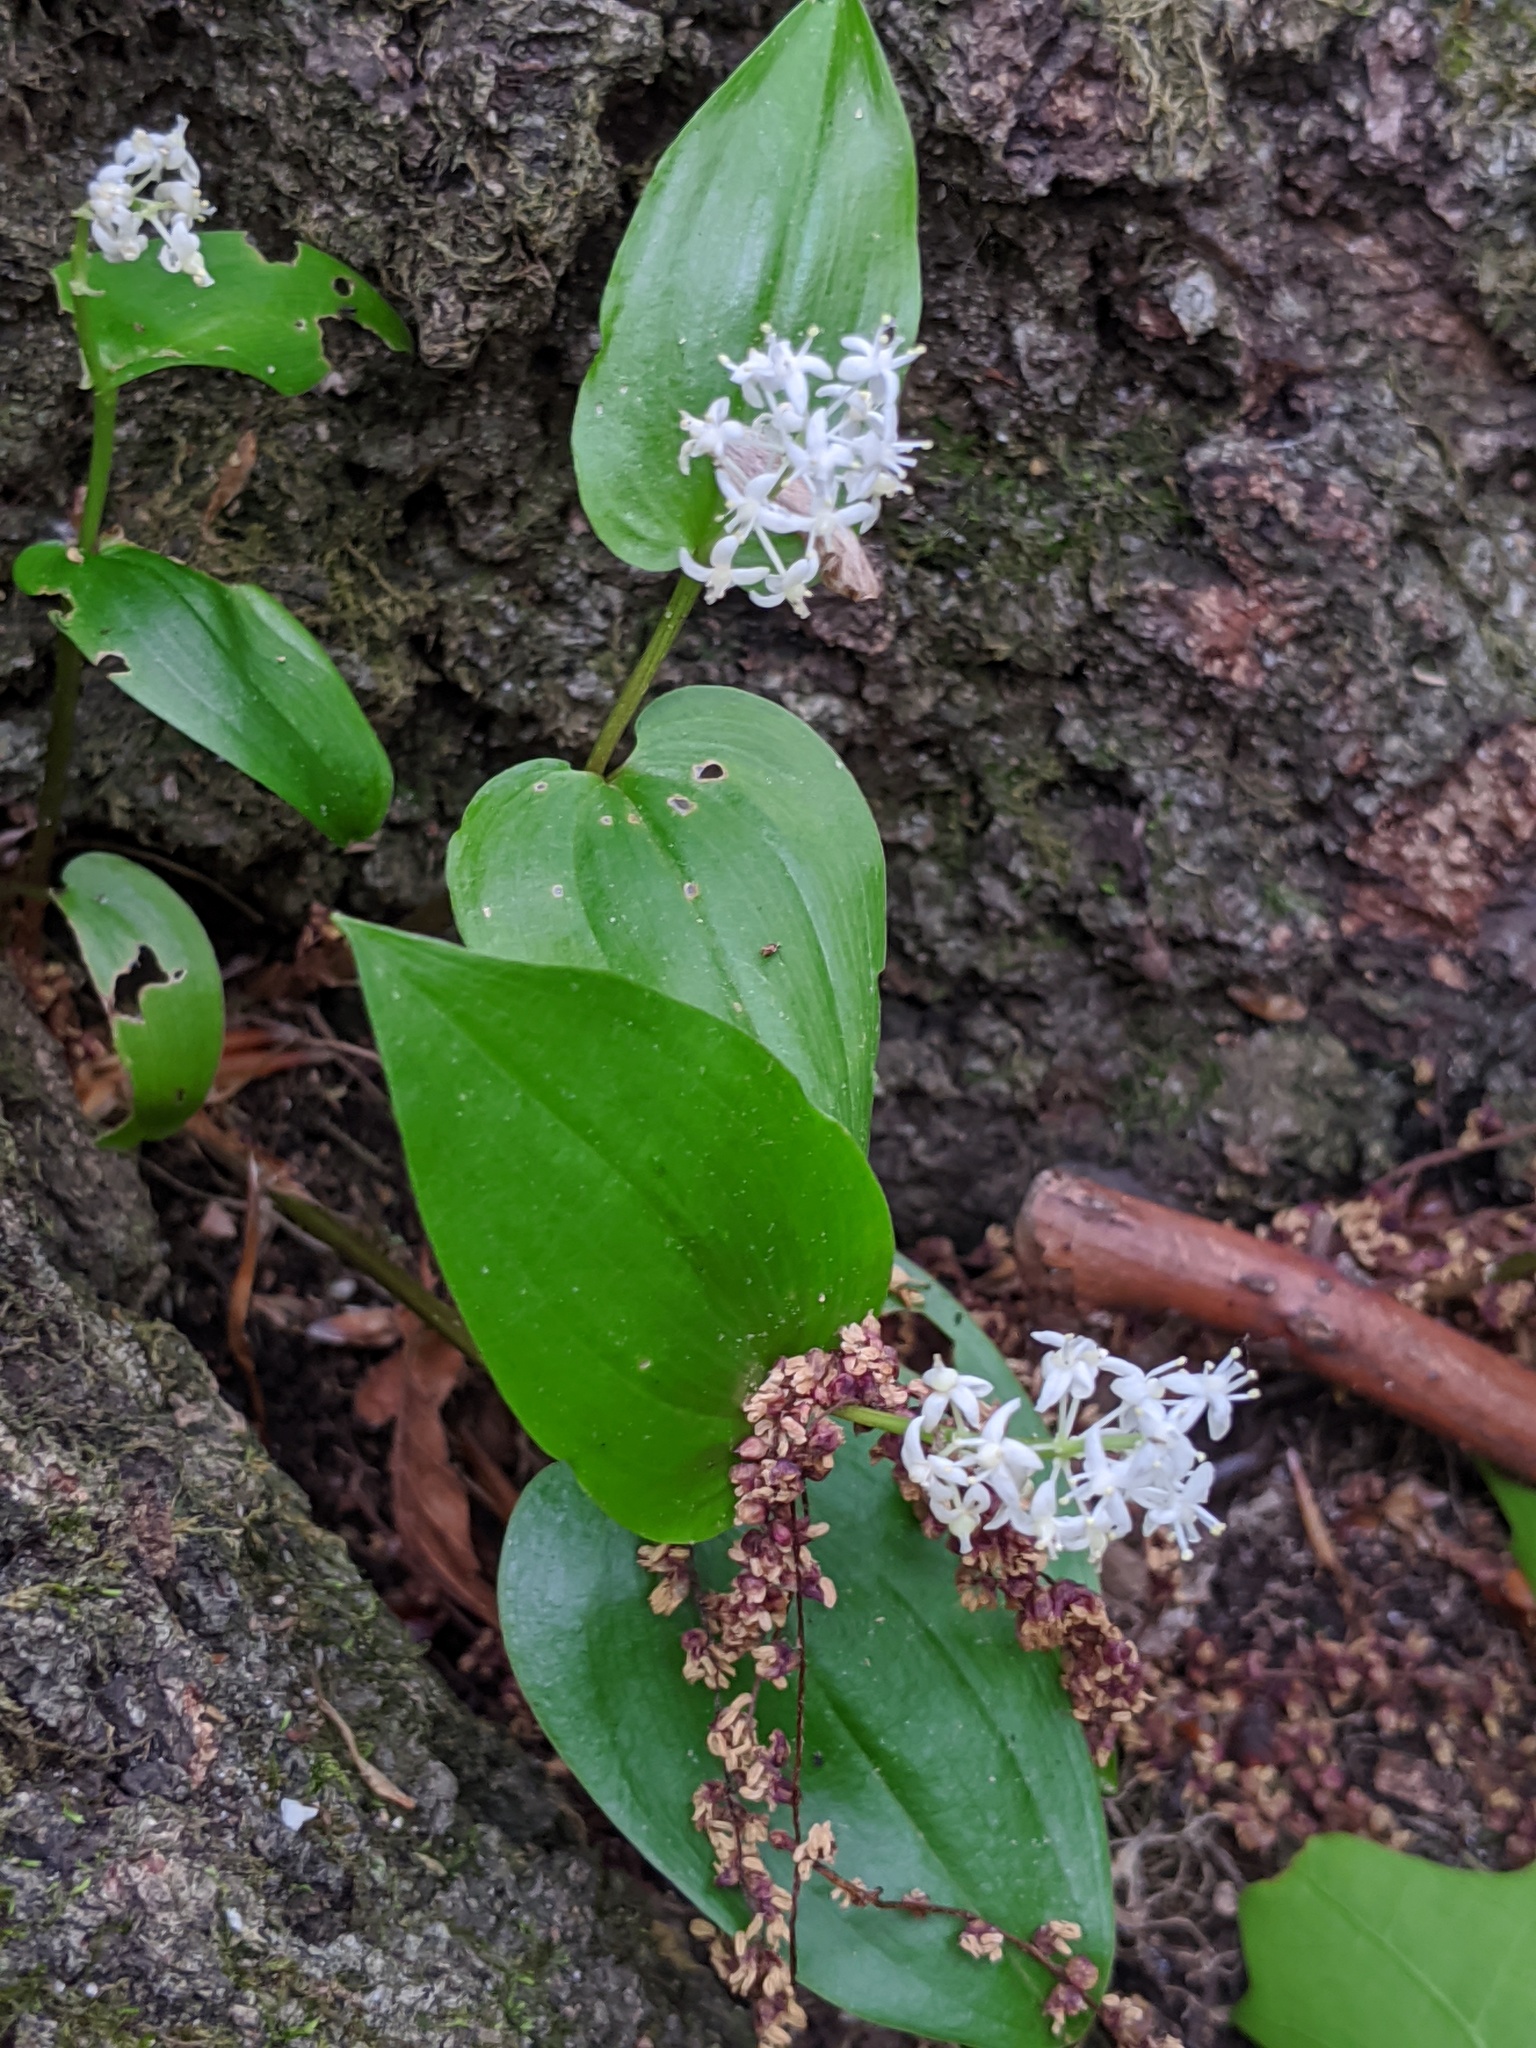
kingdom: Plantae
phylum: Tracheophyta
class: Liliopsida
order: Asparagales
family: Asparagaceae
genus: Maianthemum
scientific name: Maianthemum canadense
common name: False lily-of-the-valley
